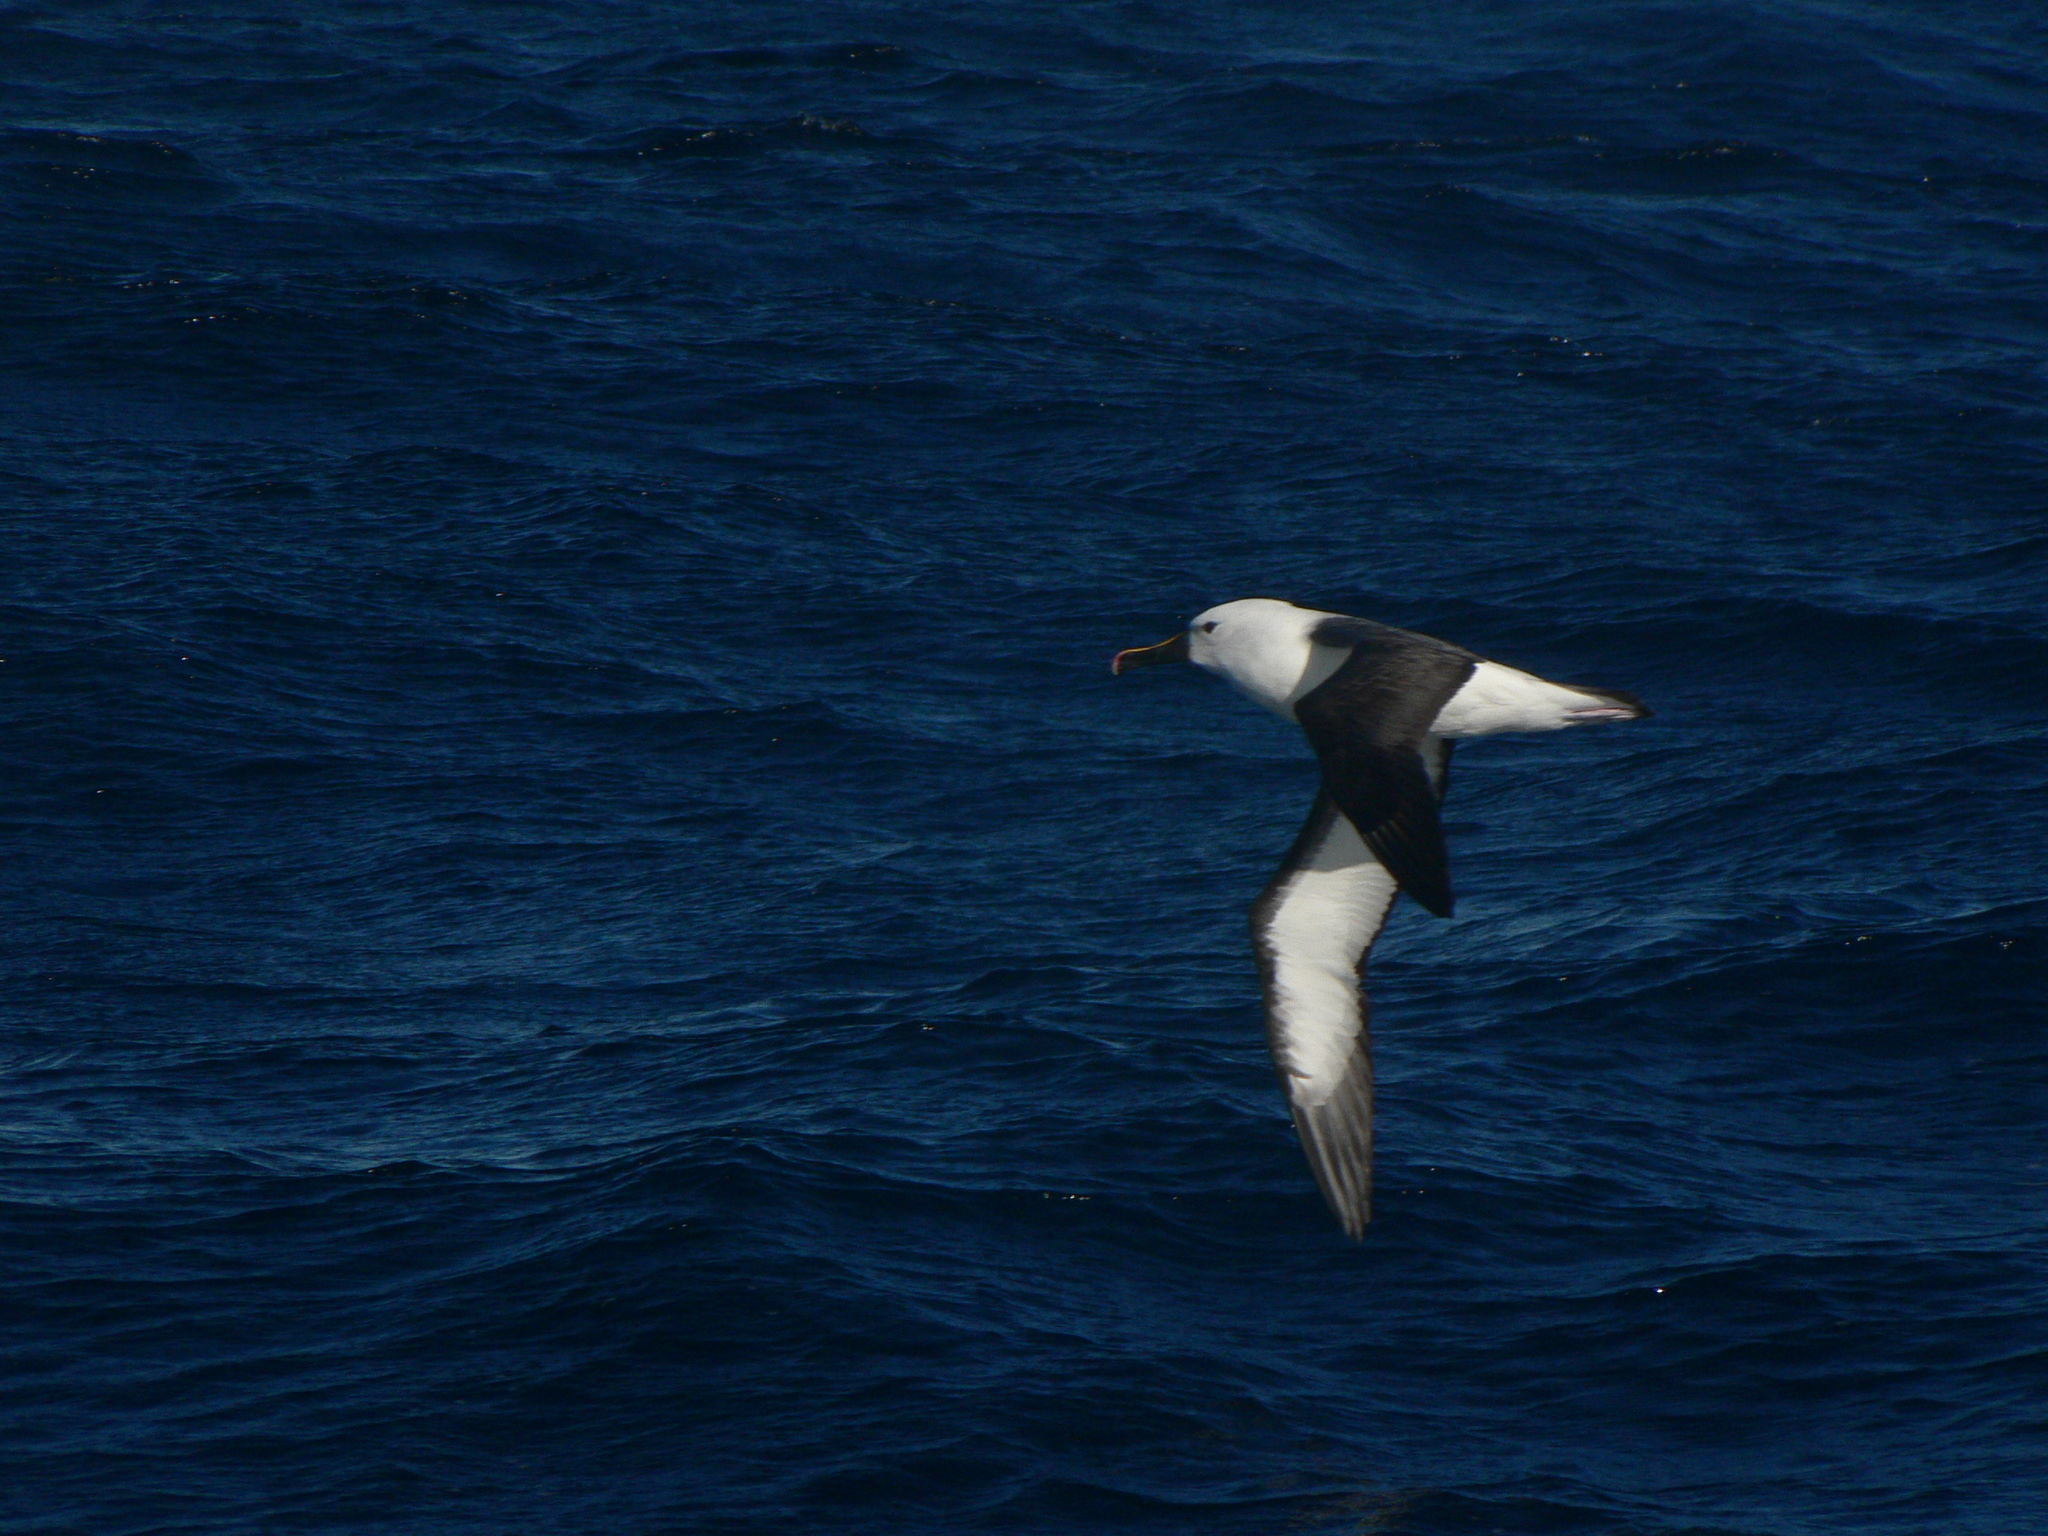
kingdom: Animalia
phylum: Chordata
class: Aves
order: Procellariiformes
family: Diomedeidae
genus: Thalassarche
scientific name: Thalassarche carteri
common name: Indian yellow-nosed albatross
